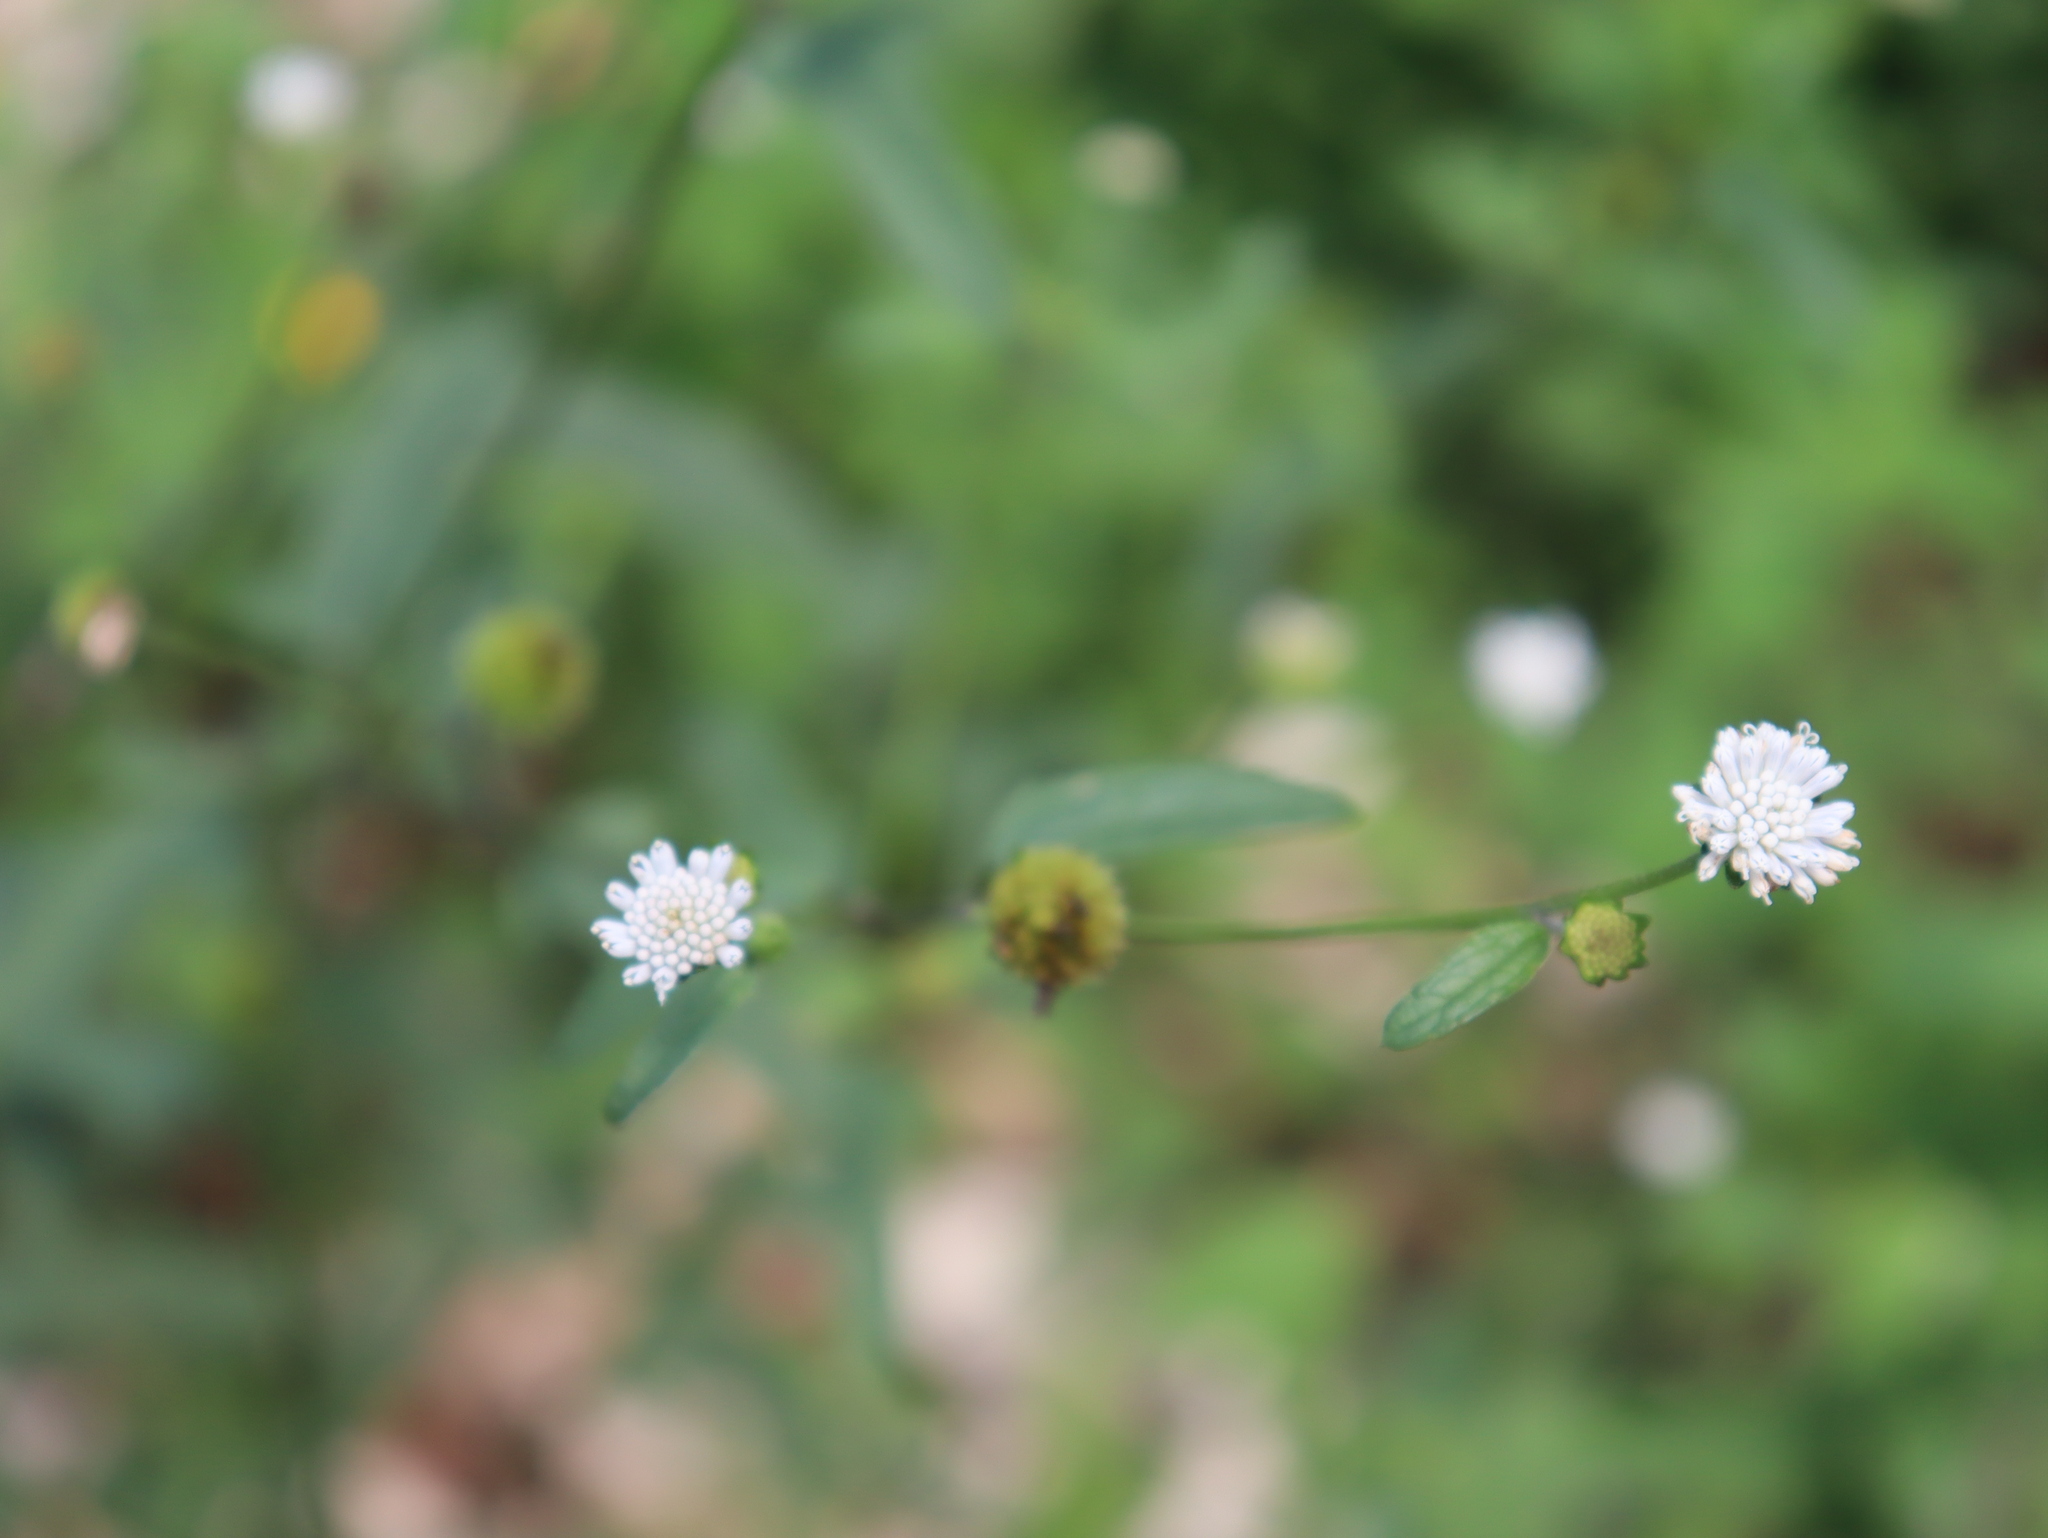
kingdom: Plantae
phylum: Tracheophyta
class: Magnoliopsida
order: Asterales
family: Asteraceae
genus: Melanthera
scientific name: Melanthera nivea
